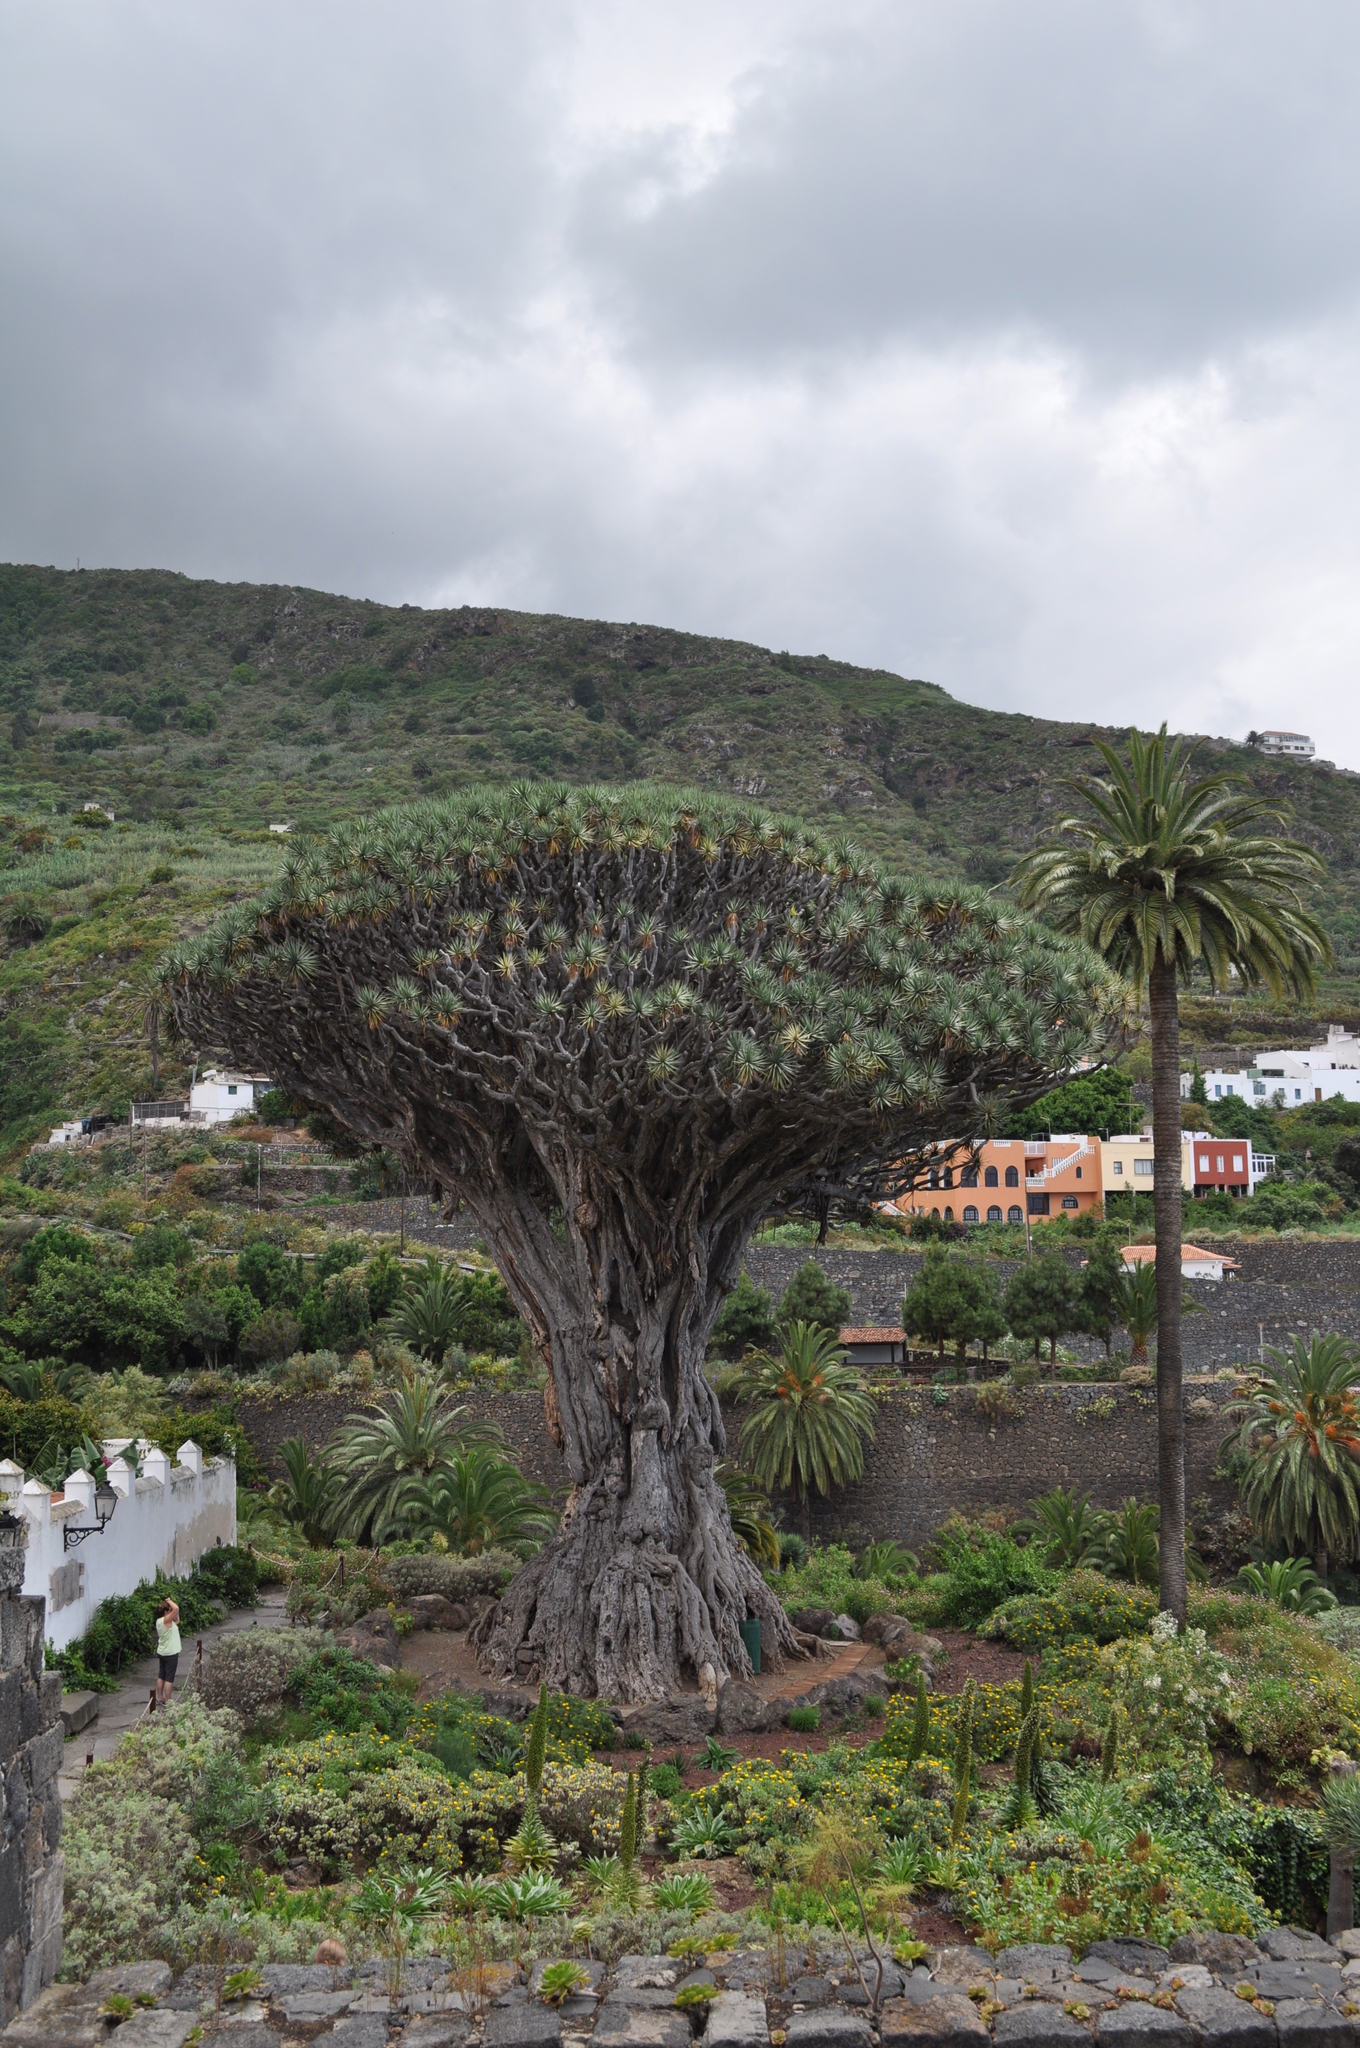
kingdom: Plantae
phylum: Tracheophyta
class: Liliopsida
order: Asparagales
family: Asparagaceae
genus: Dracaena
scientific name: Dracaena draco
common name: Canary island dragon tree
